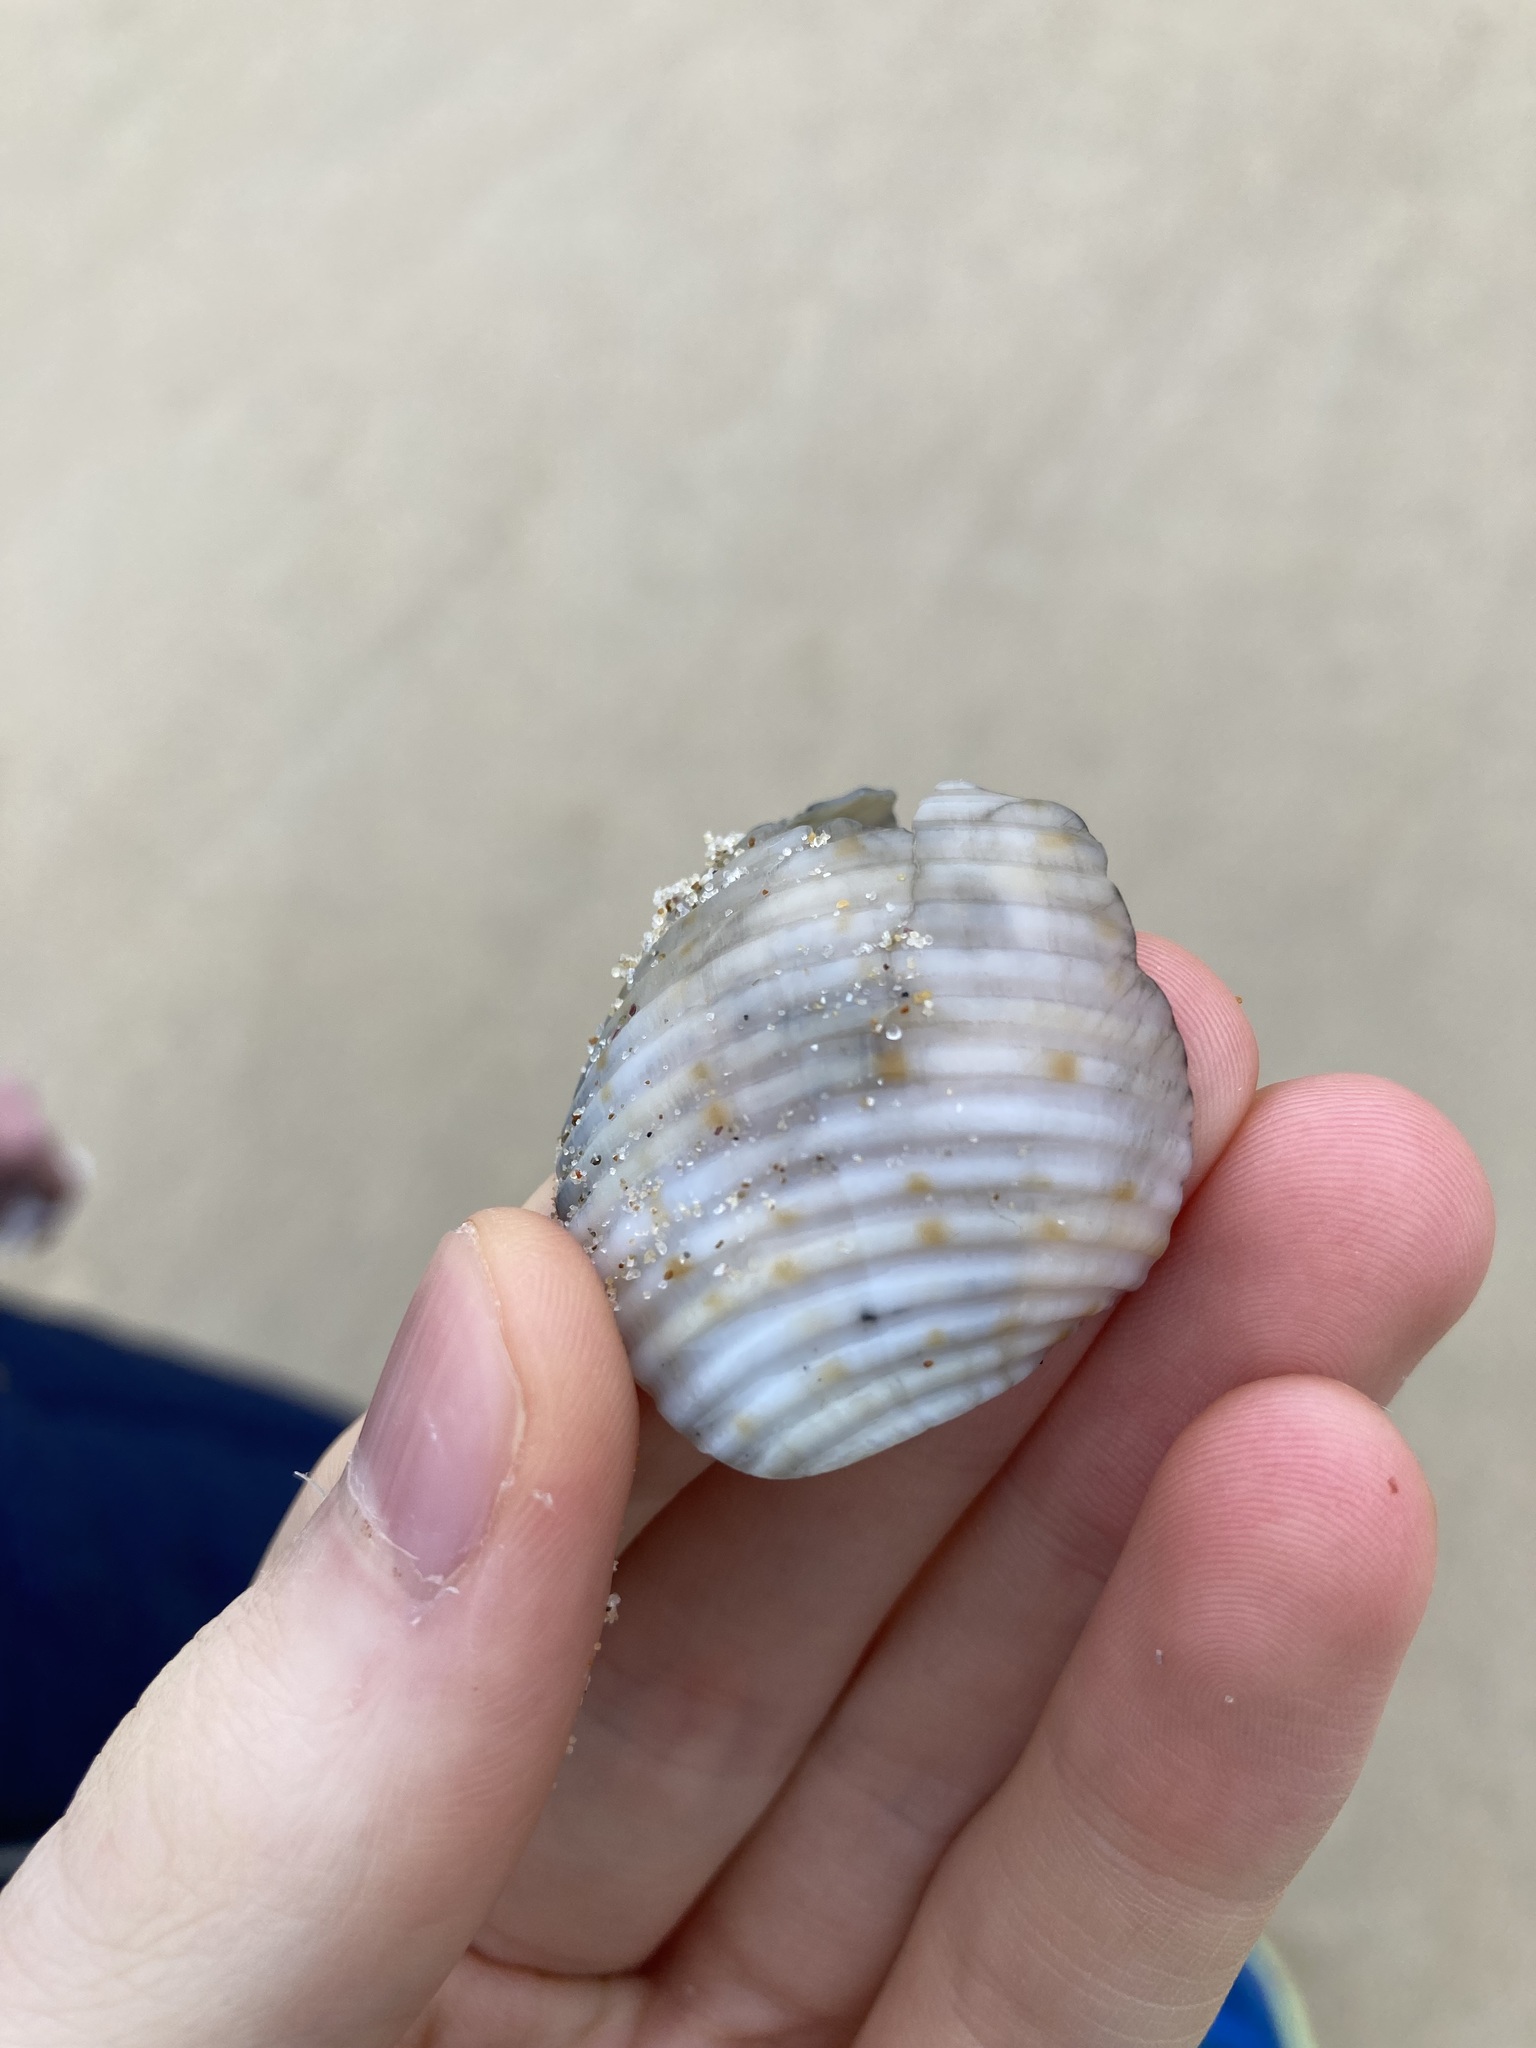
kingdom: Animalia
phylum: Mollusca
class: Gastropoda
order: Littorinimorpha
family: Tonnidae
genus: Tonna
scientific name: Tonna tankervillii
